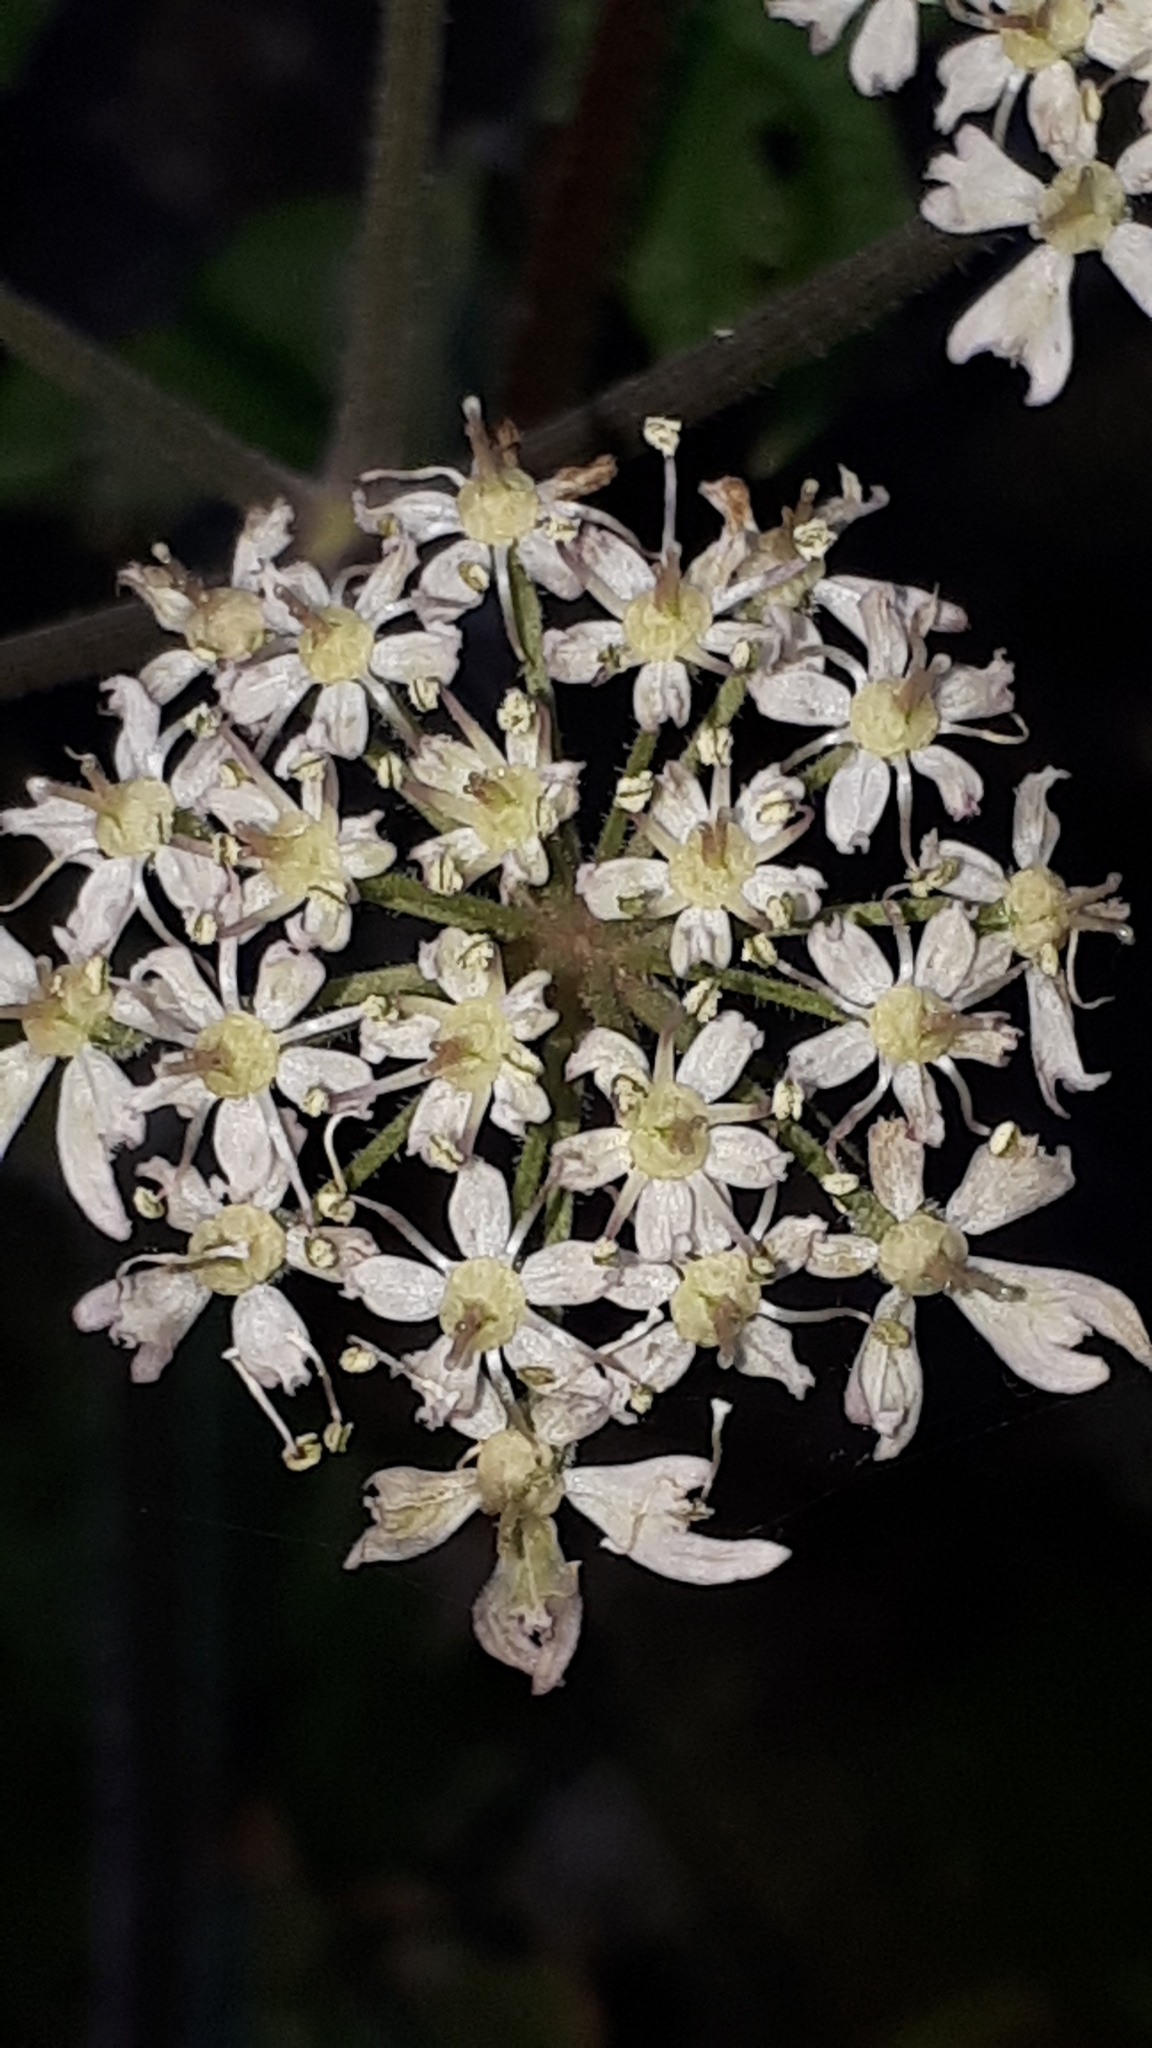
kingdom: Plantae
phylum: Tracheophyta
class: Magnoliopsida
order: Apiales
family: Apiaceae
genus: Heracleum
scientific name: Heracleum sphondylium
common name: Hogweed
